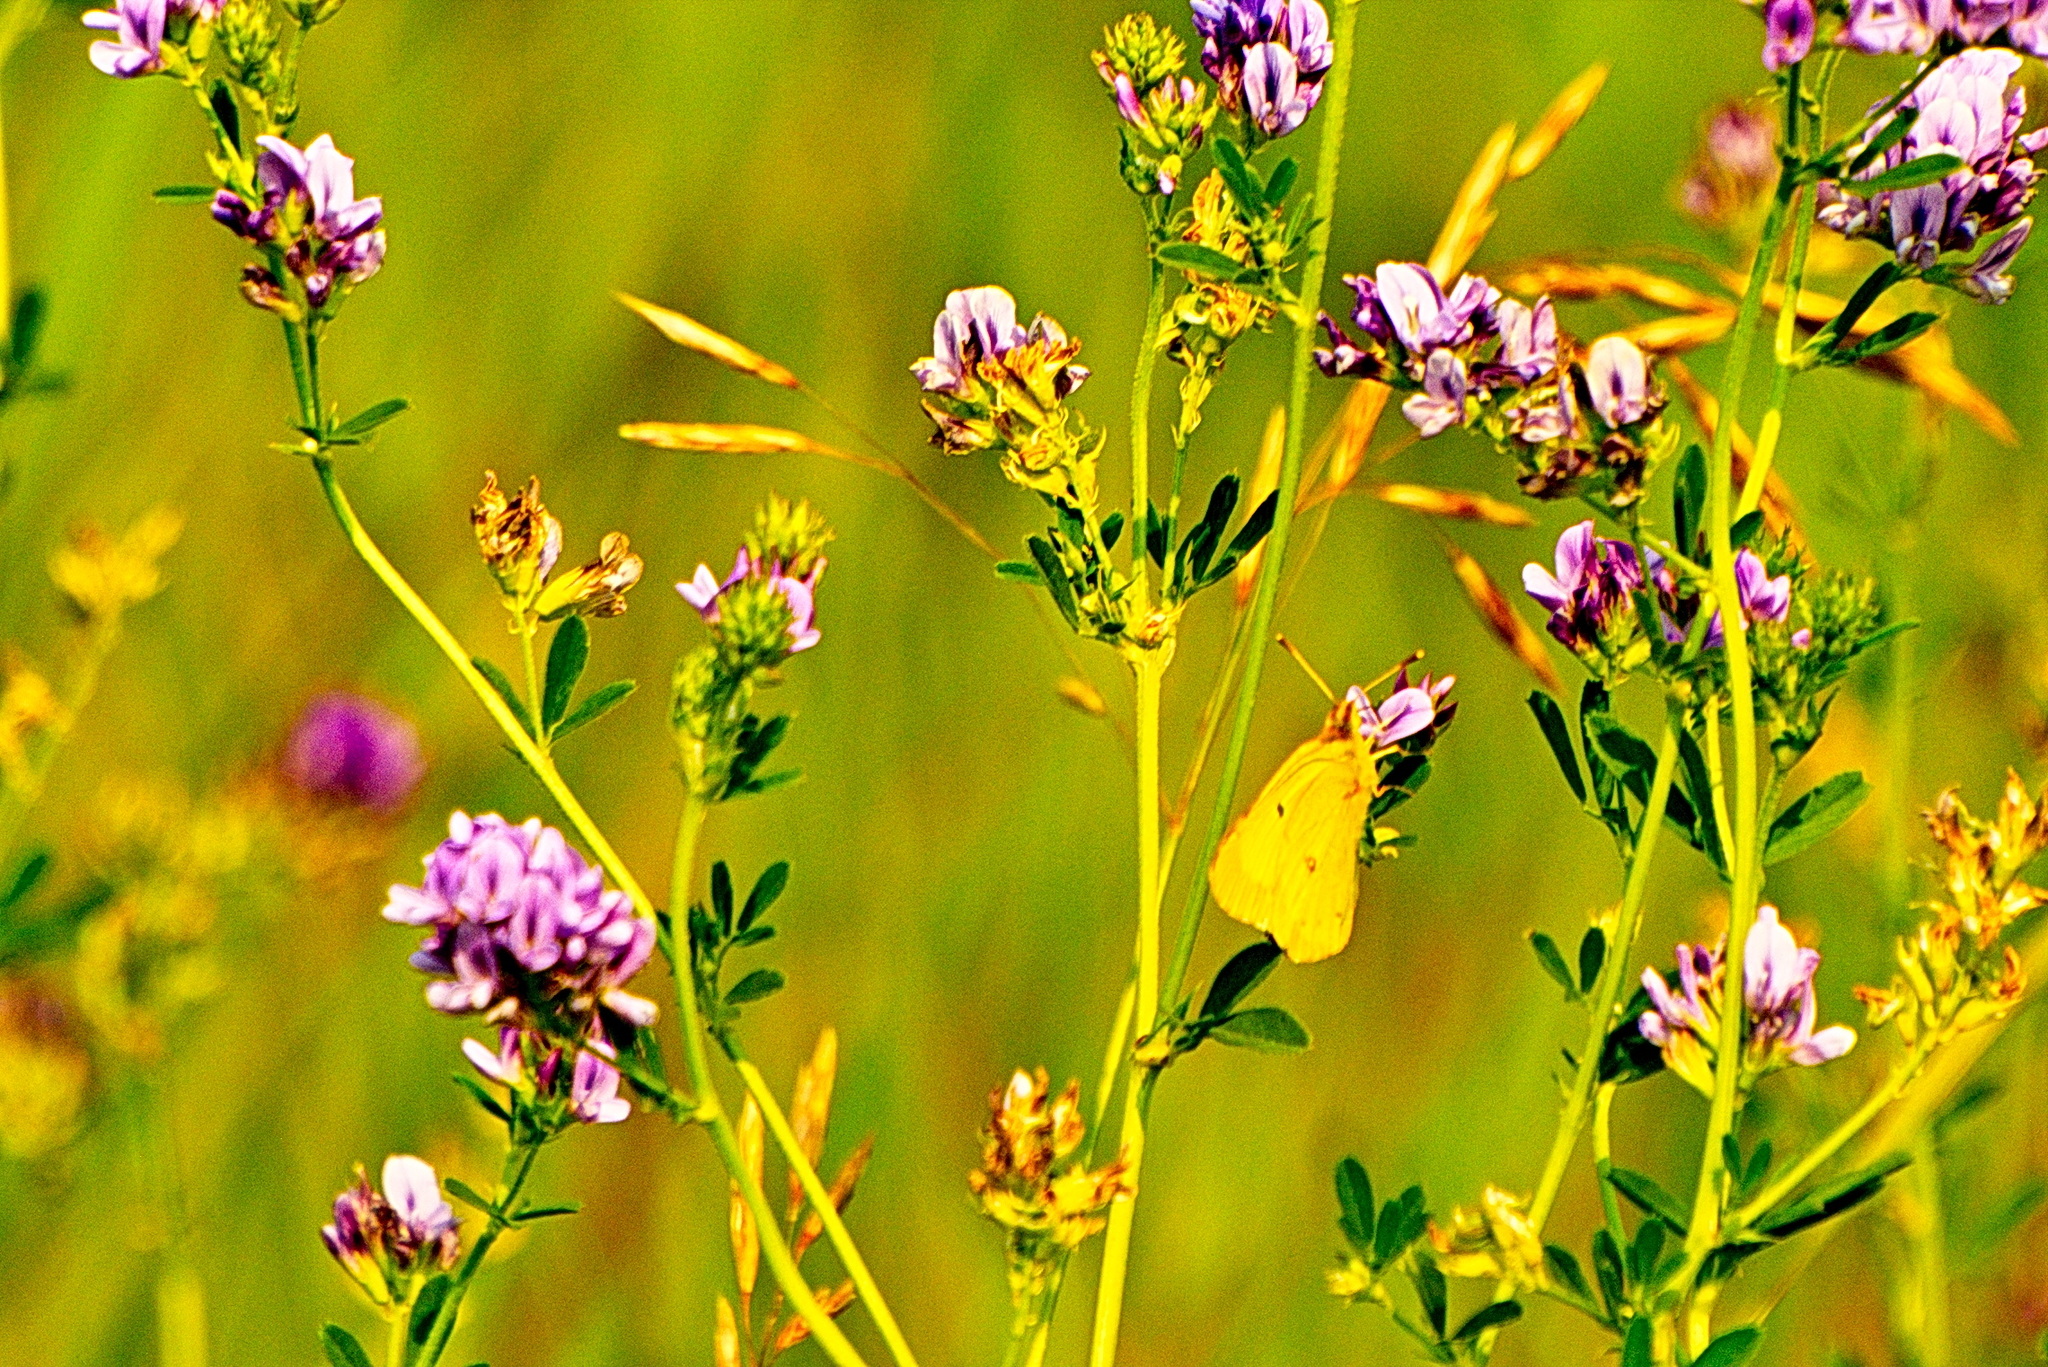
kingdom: Animalia
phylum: Arthropoda
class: Insecta
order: Lepidoptera
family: Pieridae
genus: Colias
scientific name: Colias philodice
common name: Clouded sulphur
